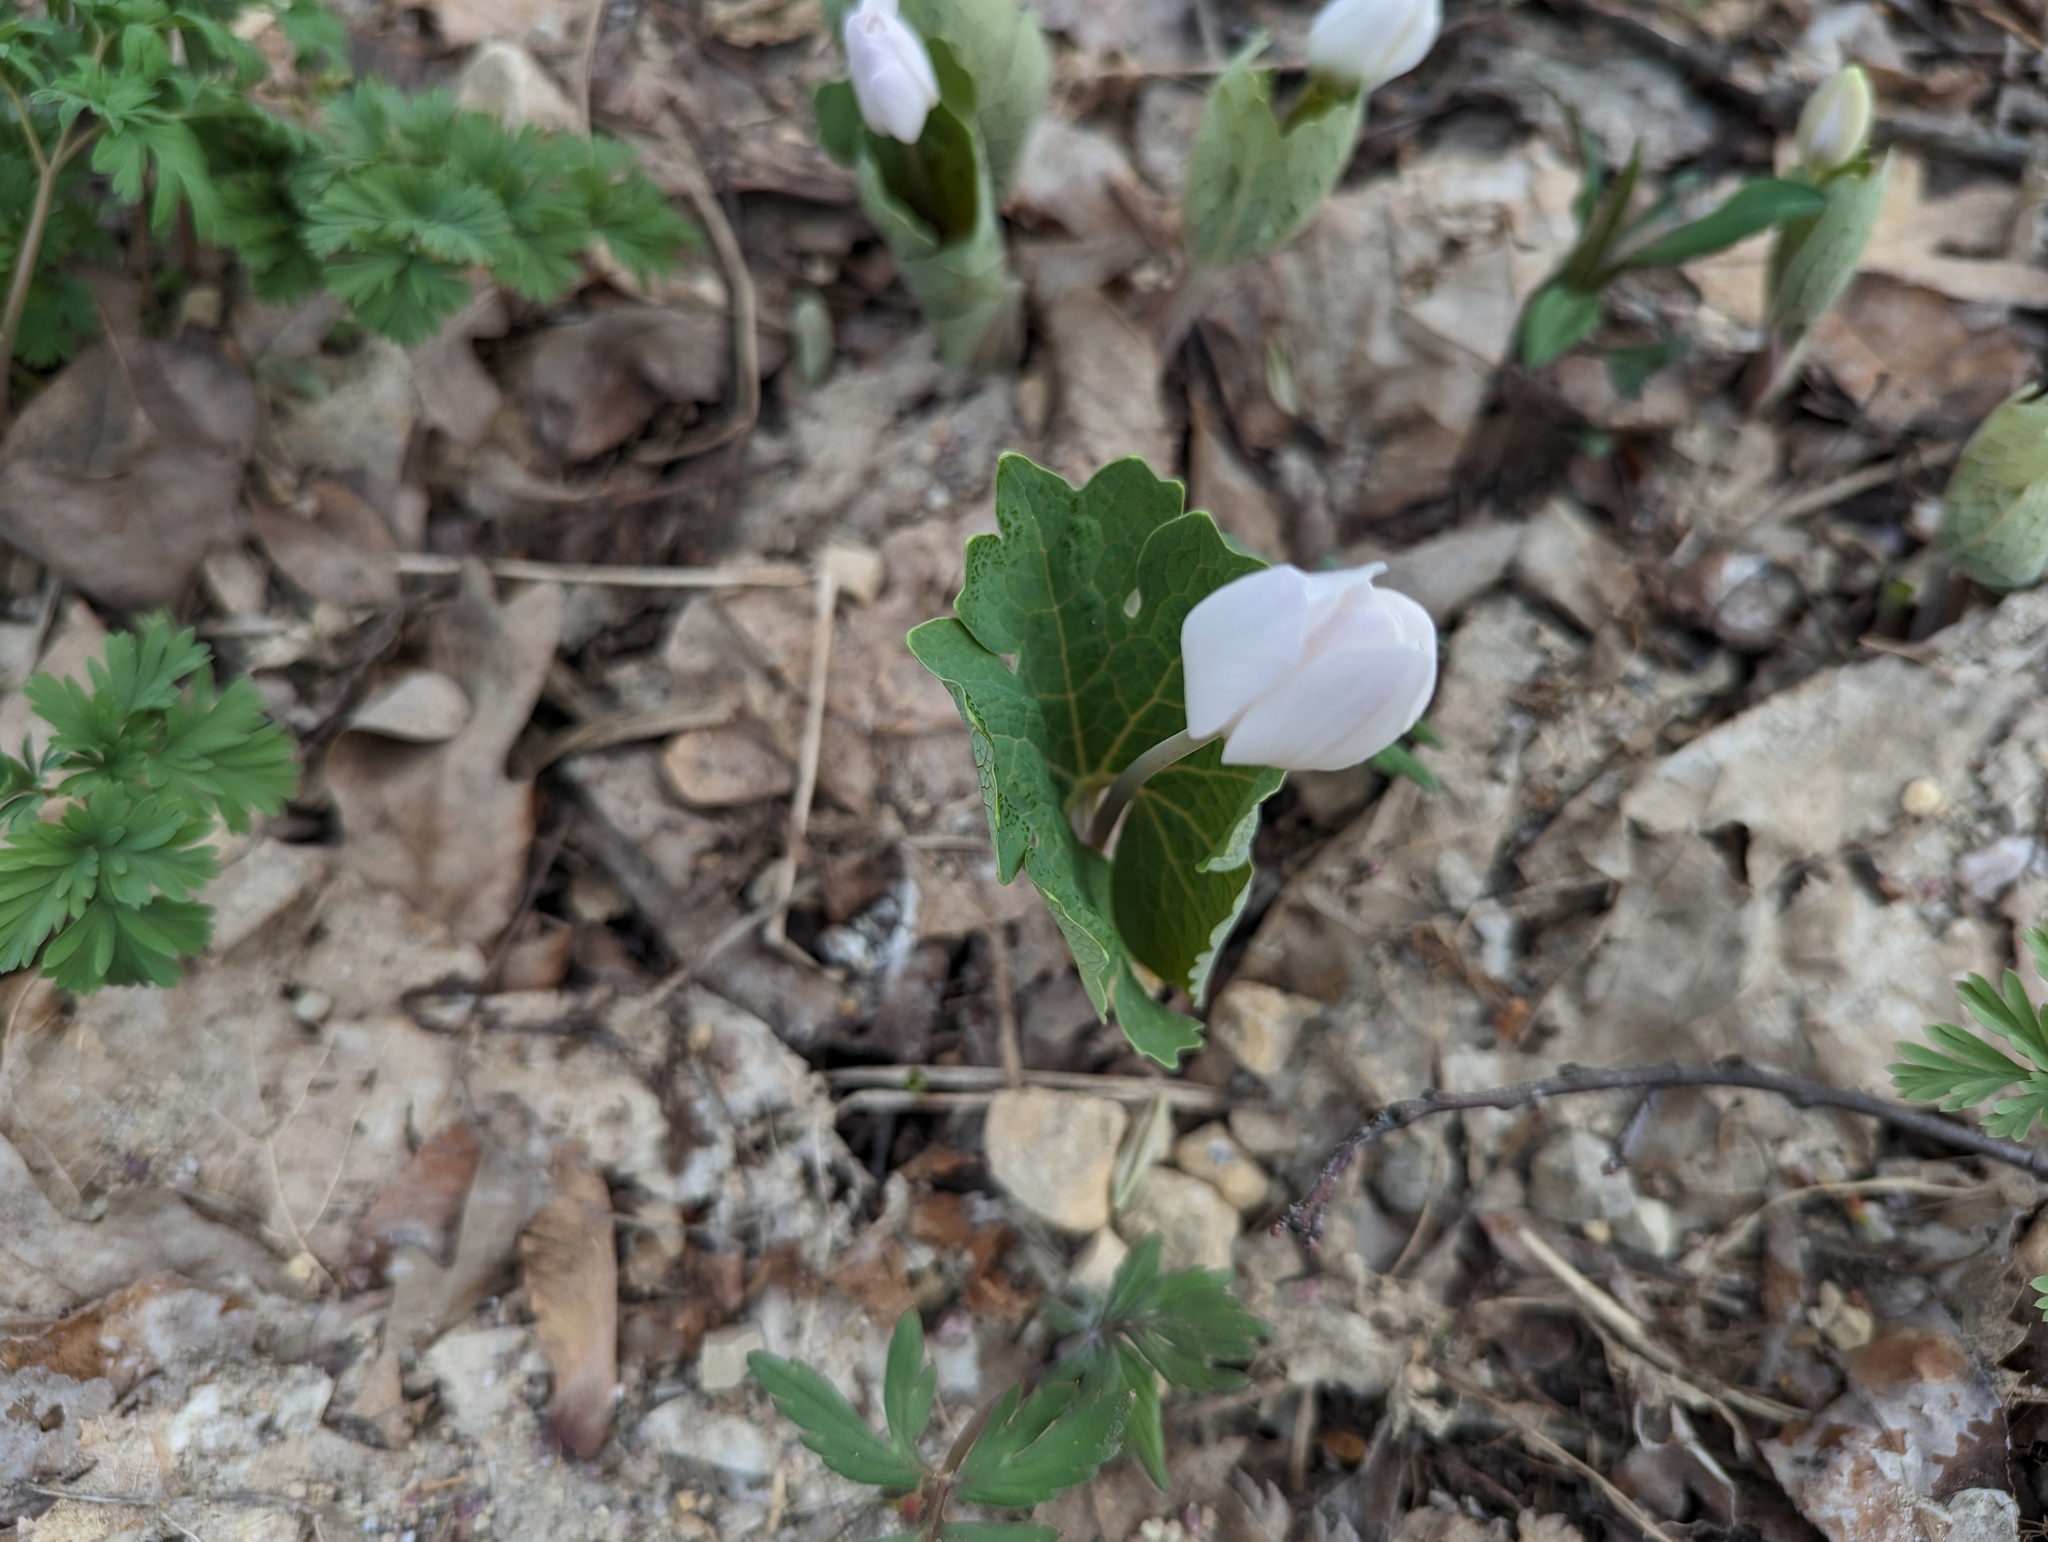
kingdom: Plantae
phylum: Tracheophyta
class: Magnoliopsida
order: Ranunculales
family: Papaveraceae
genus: Sanguinaria
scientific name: Sanguinaria canadensis
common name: Bloodroot
